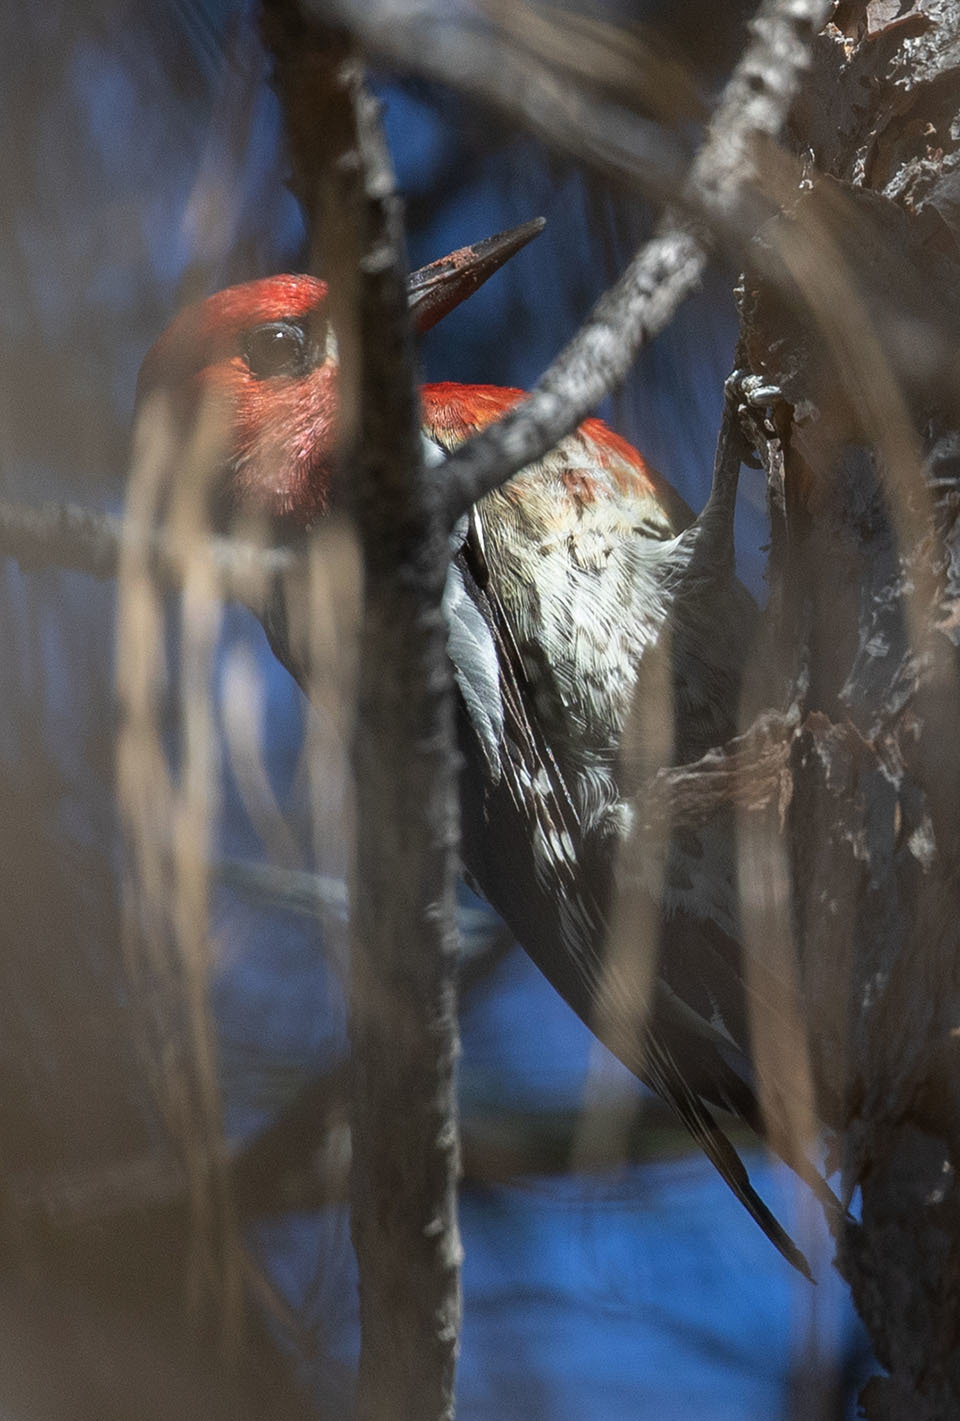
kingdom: Animalia
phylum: Chordata
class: Aves
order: Piciformes
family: Picidae
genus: Sphyrapicus
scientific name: Sphyrapicus ruber
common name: Red-breasted sapsucker
